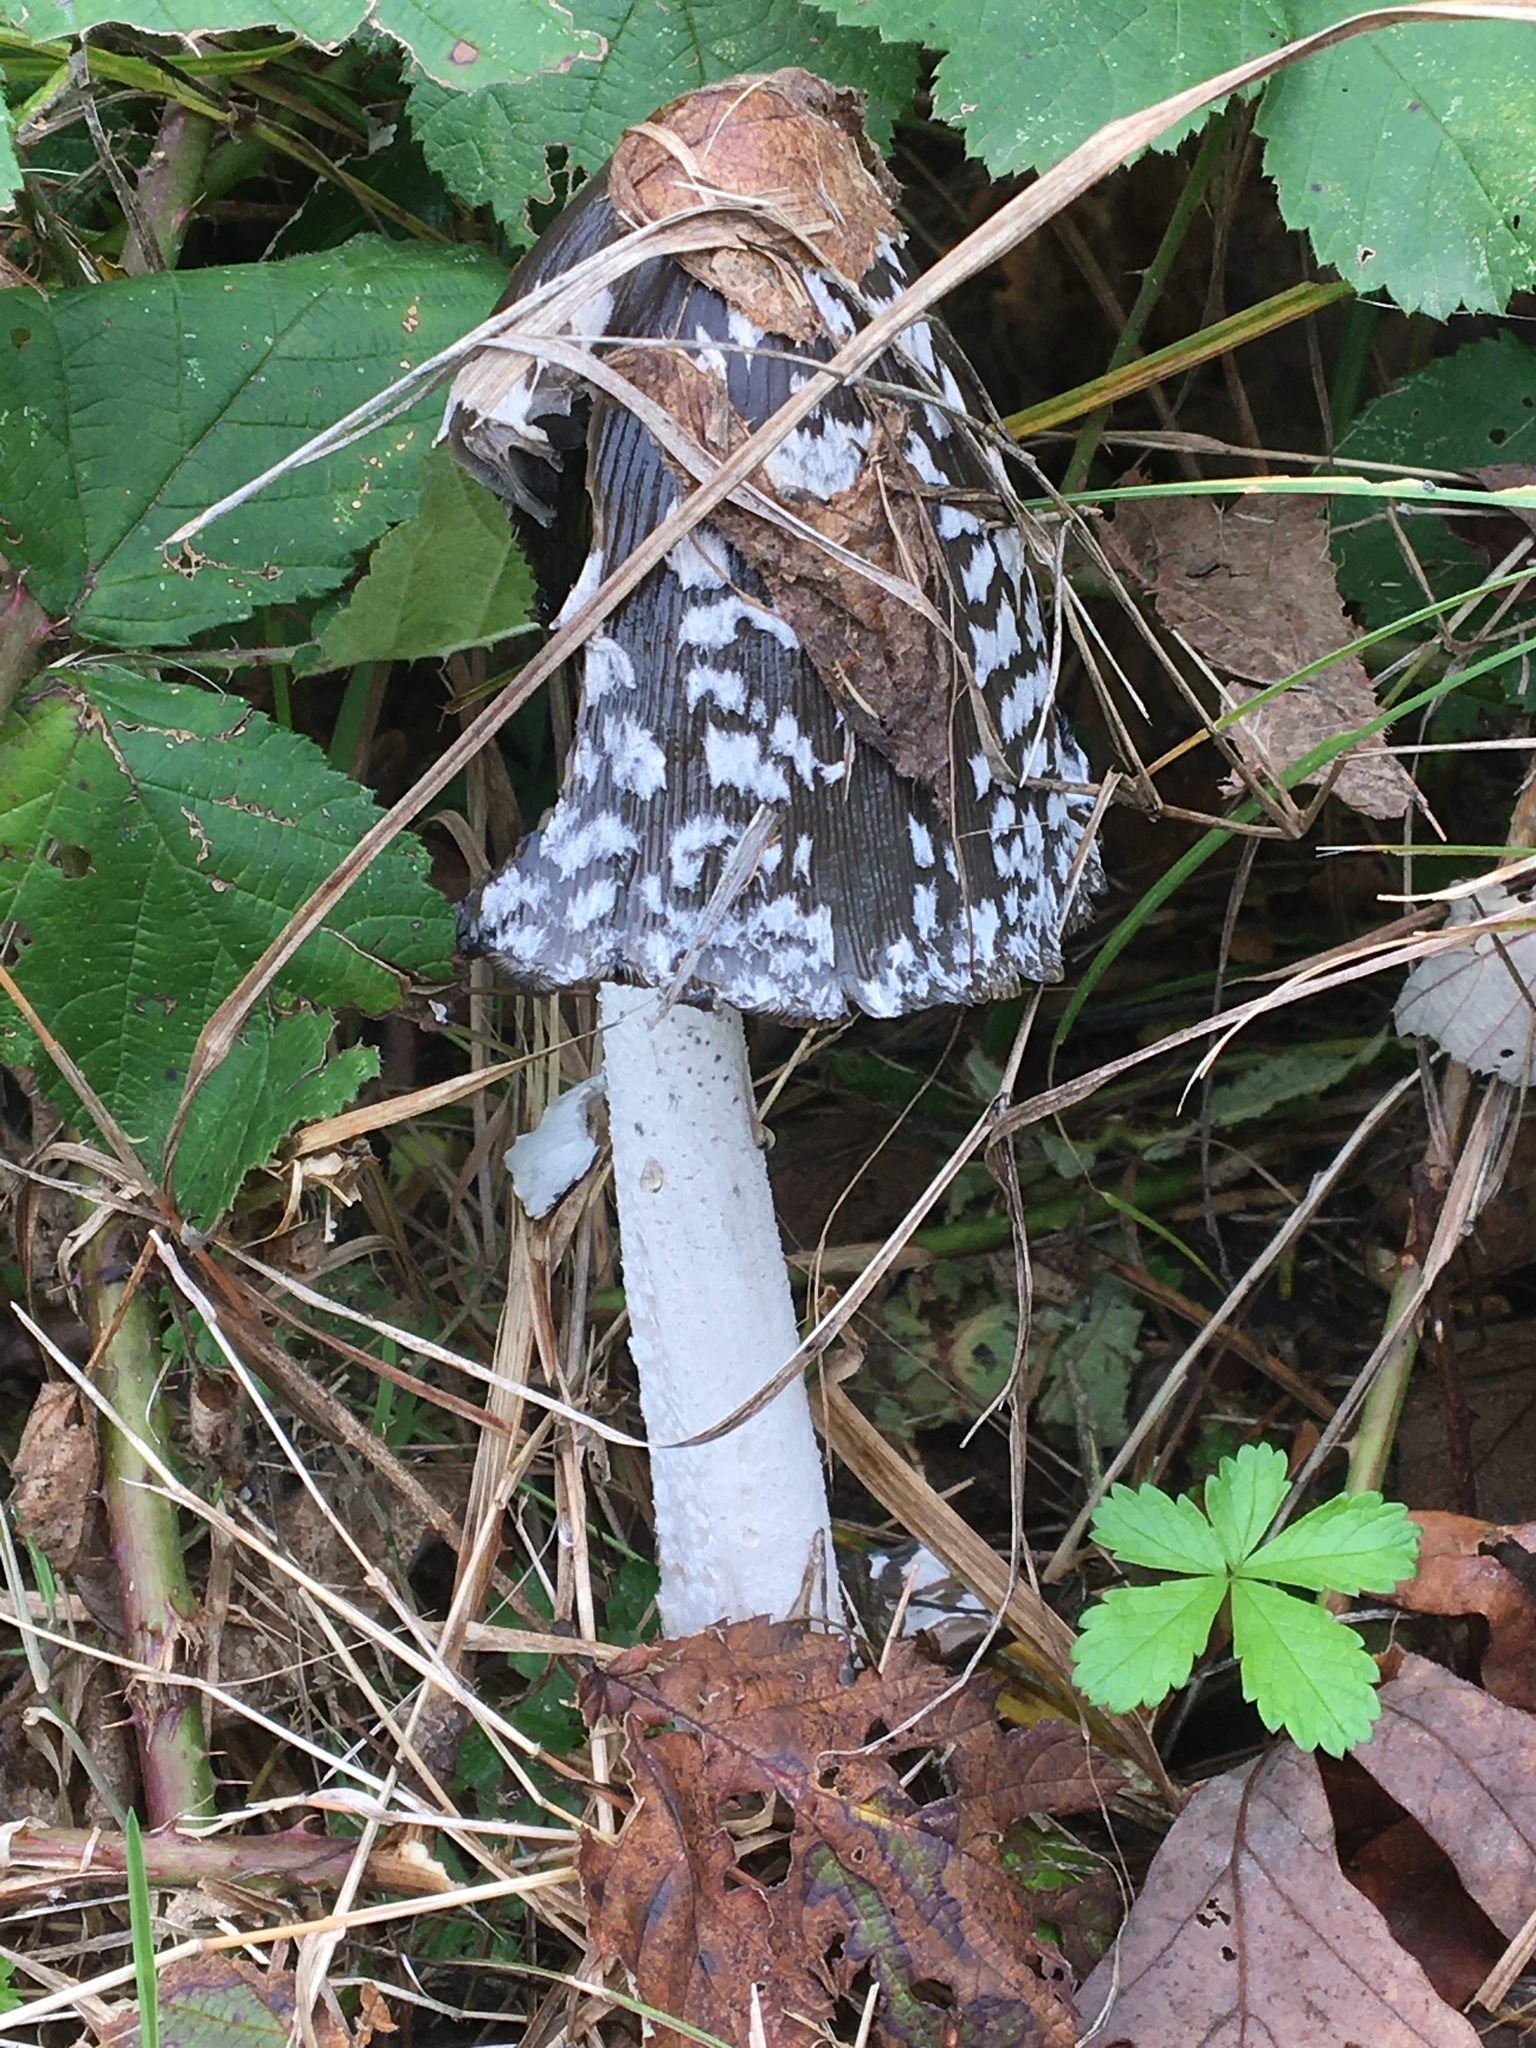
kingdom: Fungi
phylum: Basidiomycota
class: Agaricomycetes
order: Agaricales
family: Psathyrellaceae
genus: Coprinopsis
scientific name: Coprinopsis picacea
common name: Magpie inkcap
